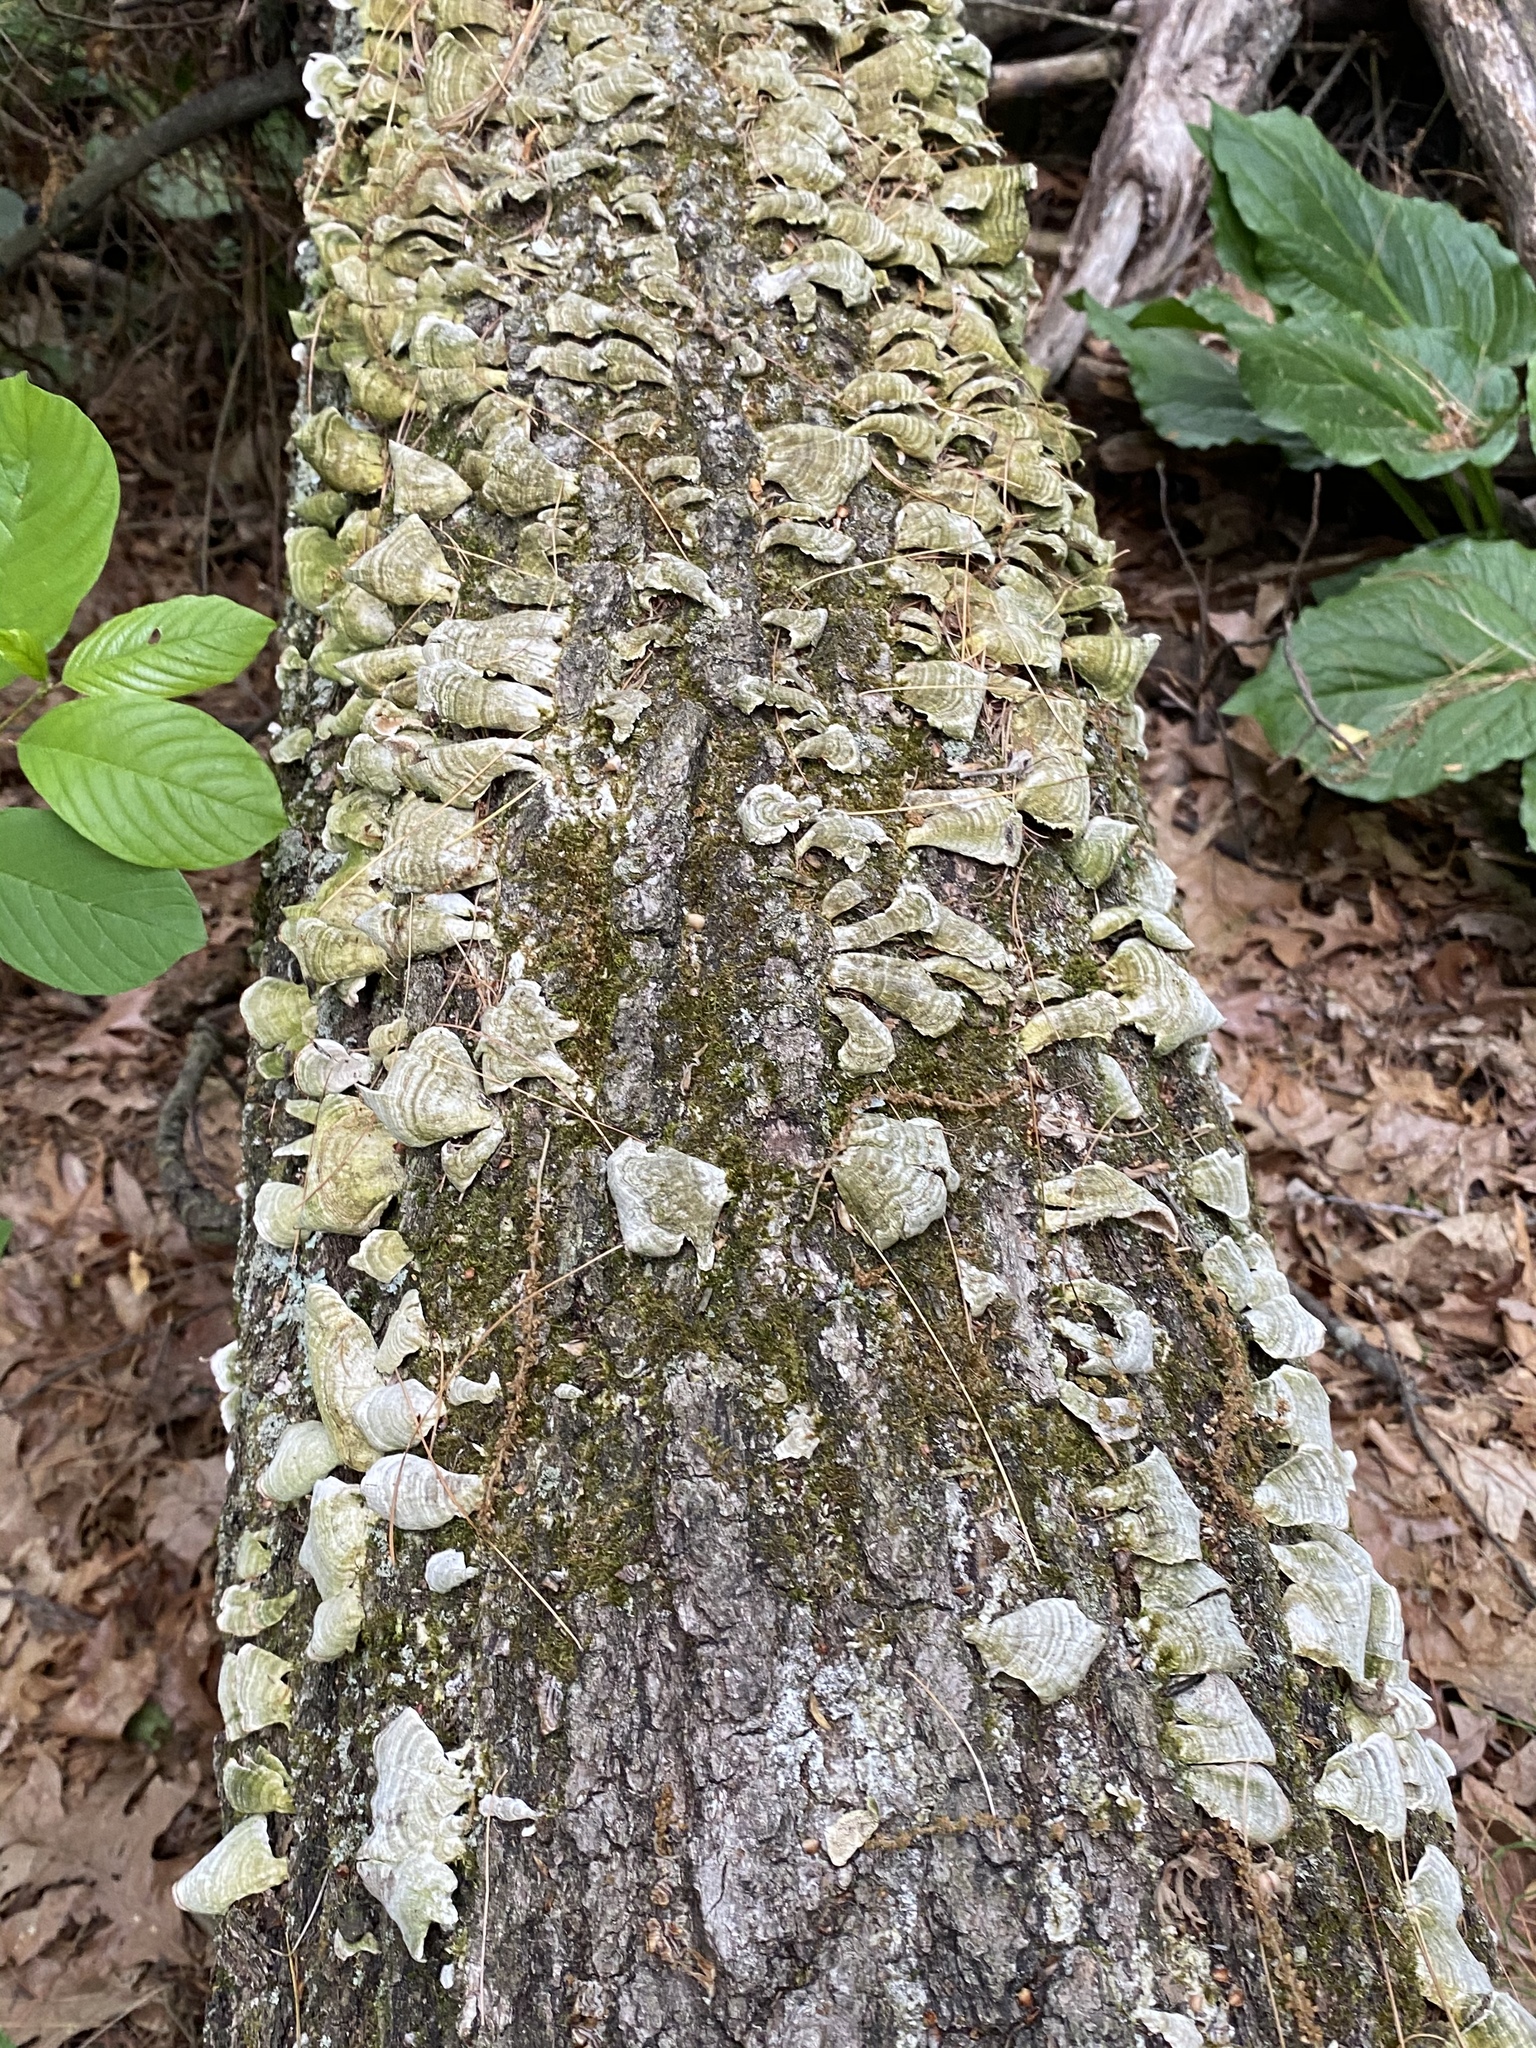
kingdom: Fungi
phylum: Basidiomycota
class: Agaricomycetes
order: Hymenochaetales
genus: Trichaptum
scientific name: Trichaptum biforme
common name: Violet-toothed polypore
